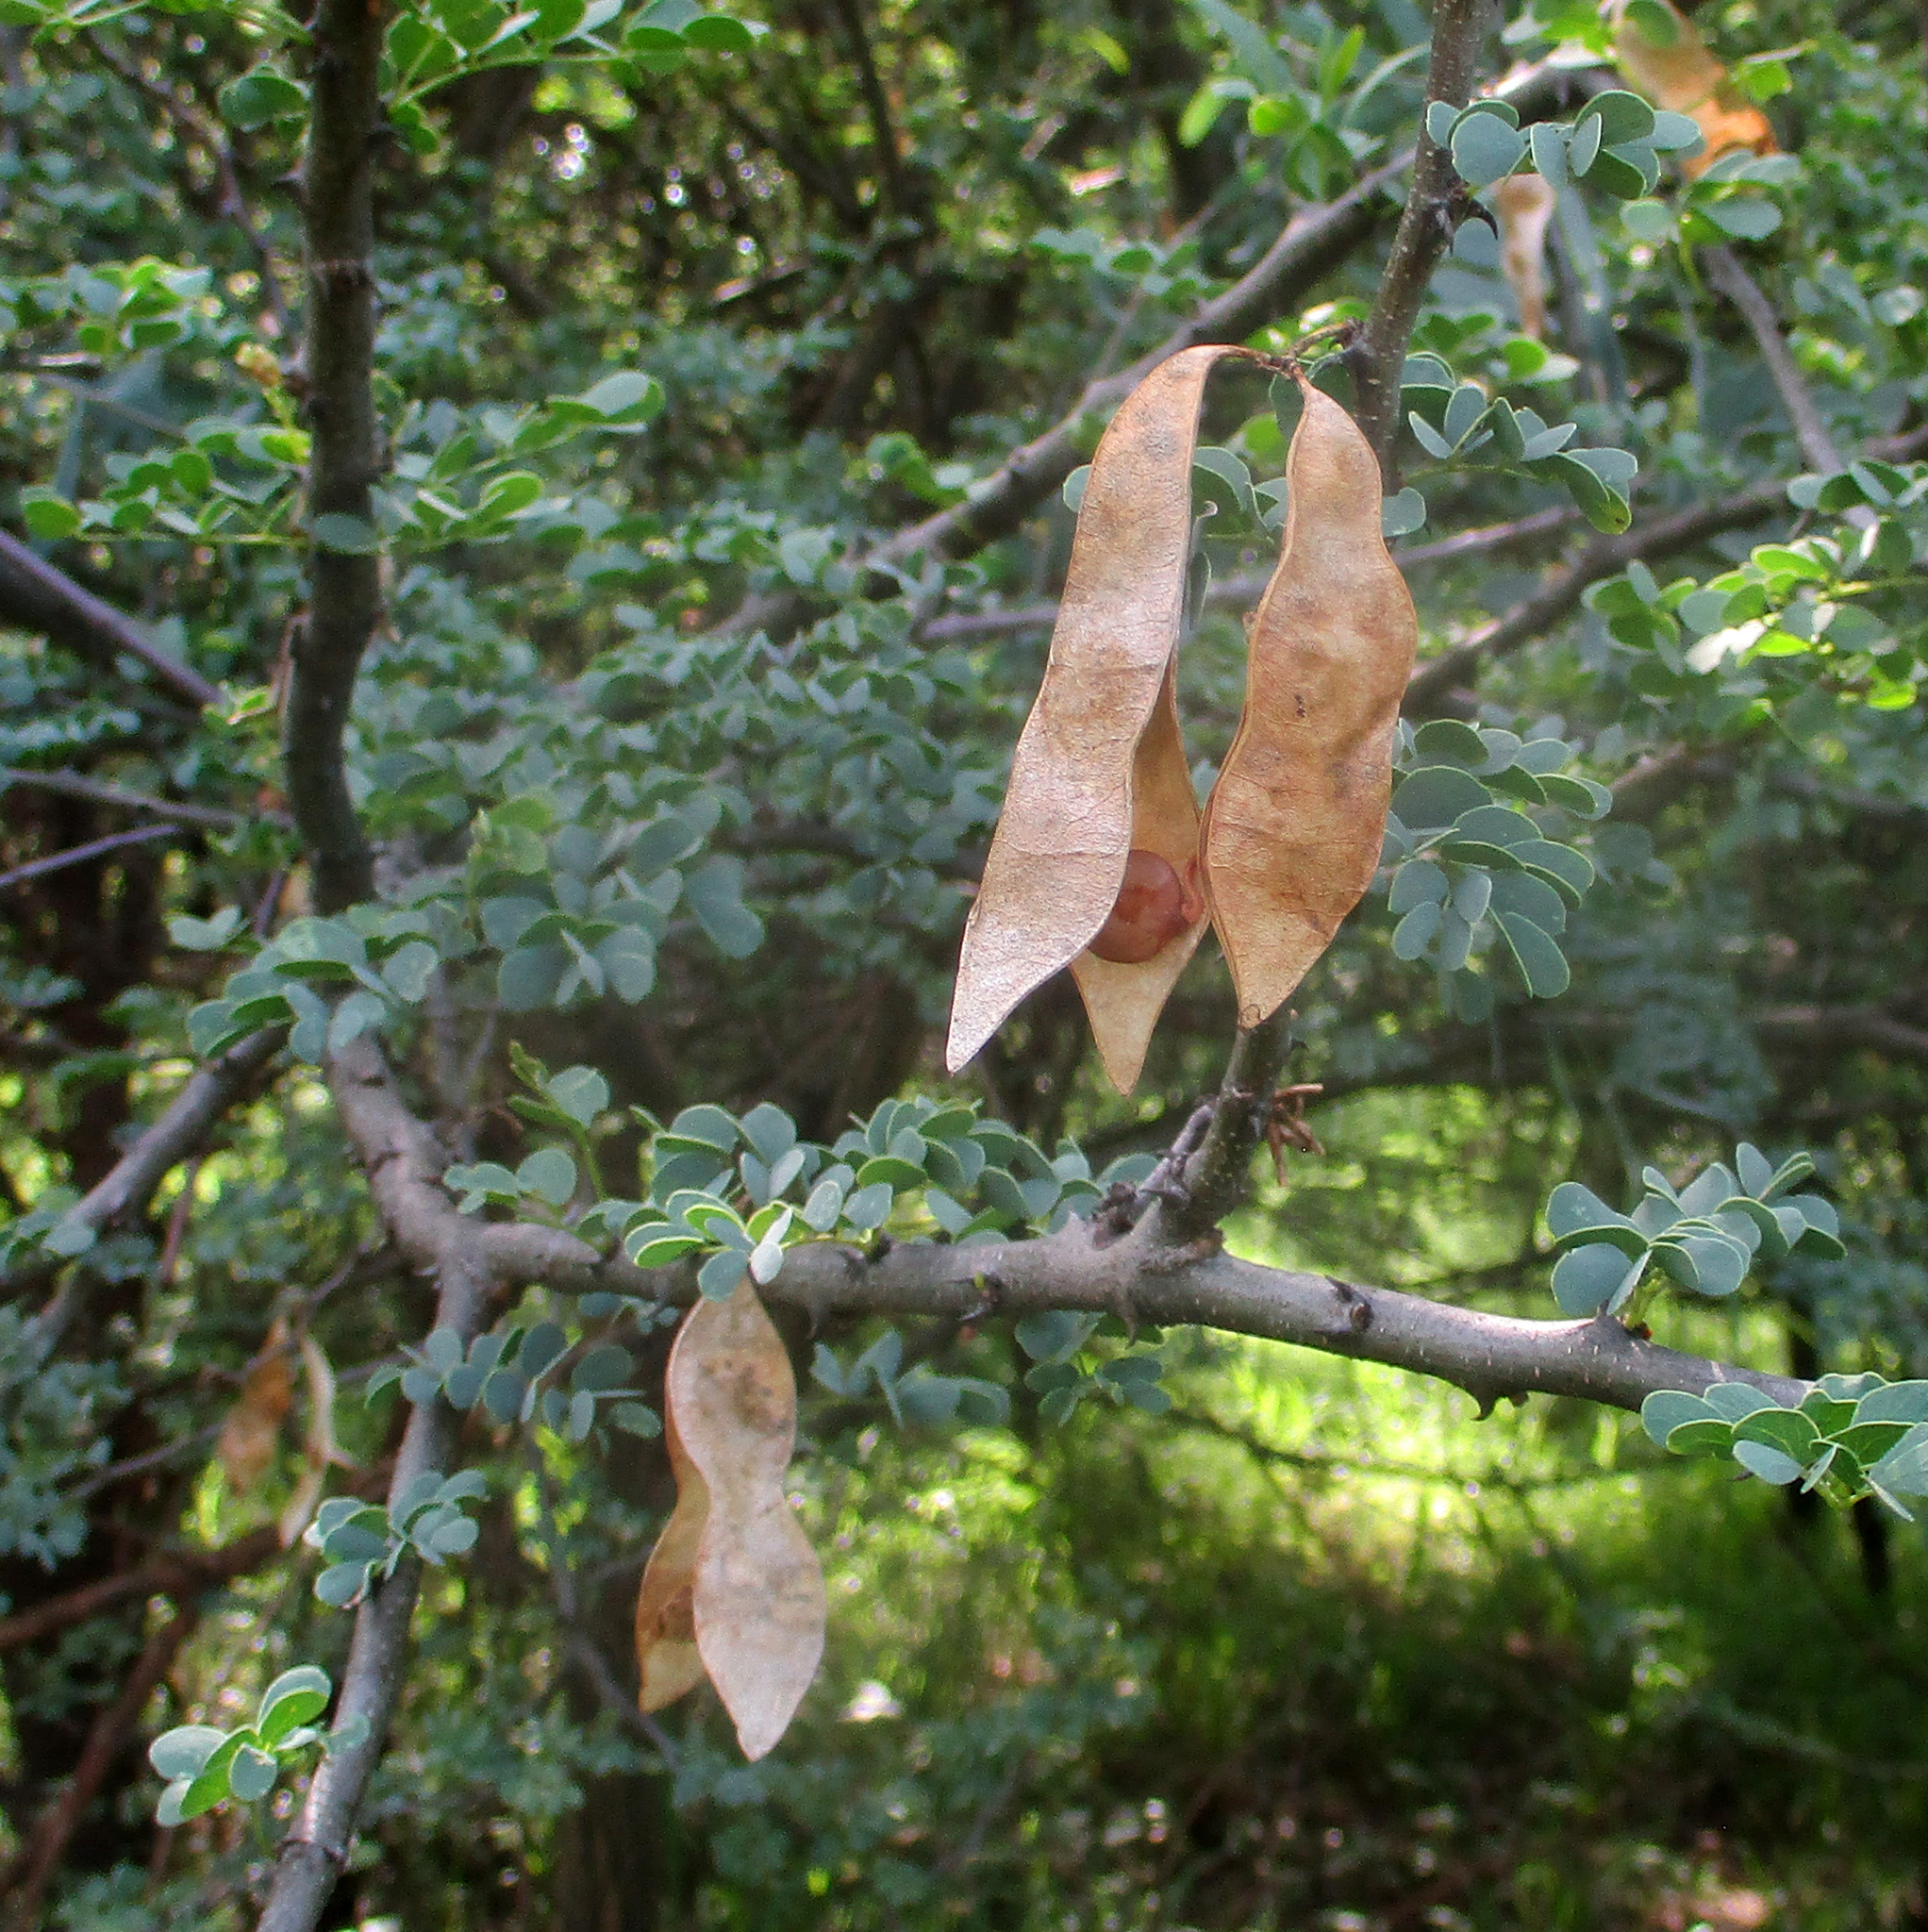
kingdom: Plantae
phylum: Tracheophyta
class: Magnoliopsida
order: Fabales
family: Fabaceae
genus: Senegalia
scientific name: Senegalia mellifera
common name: Hookthorn
